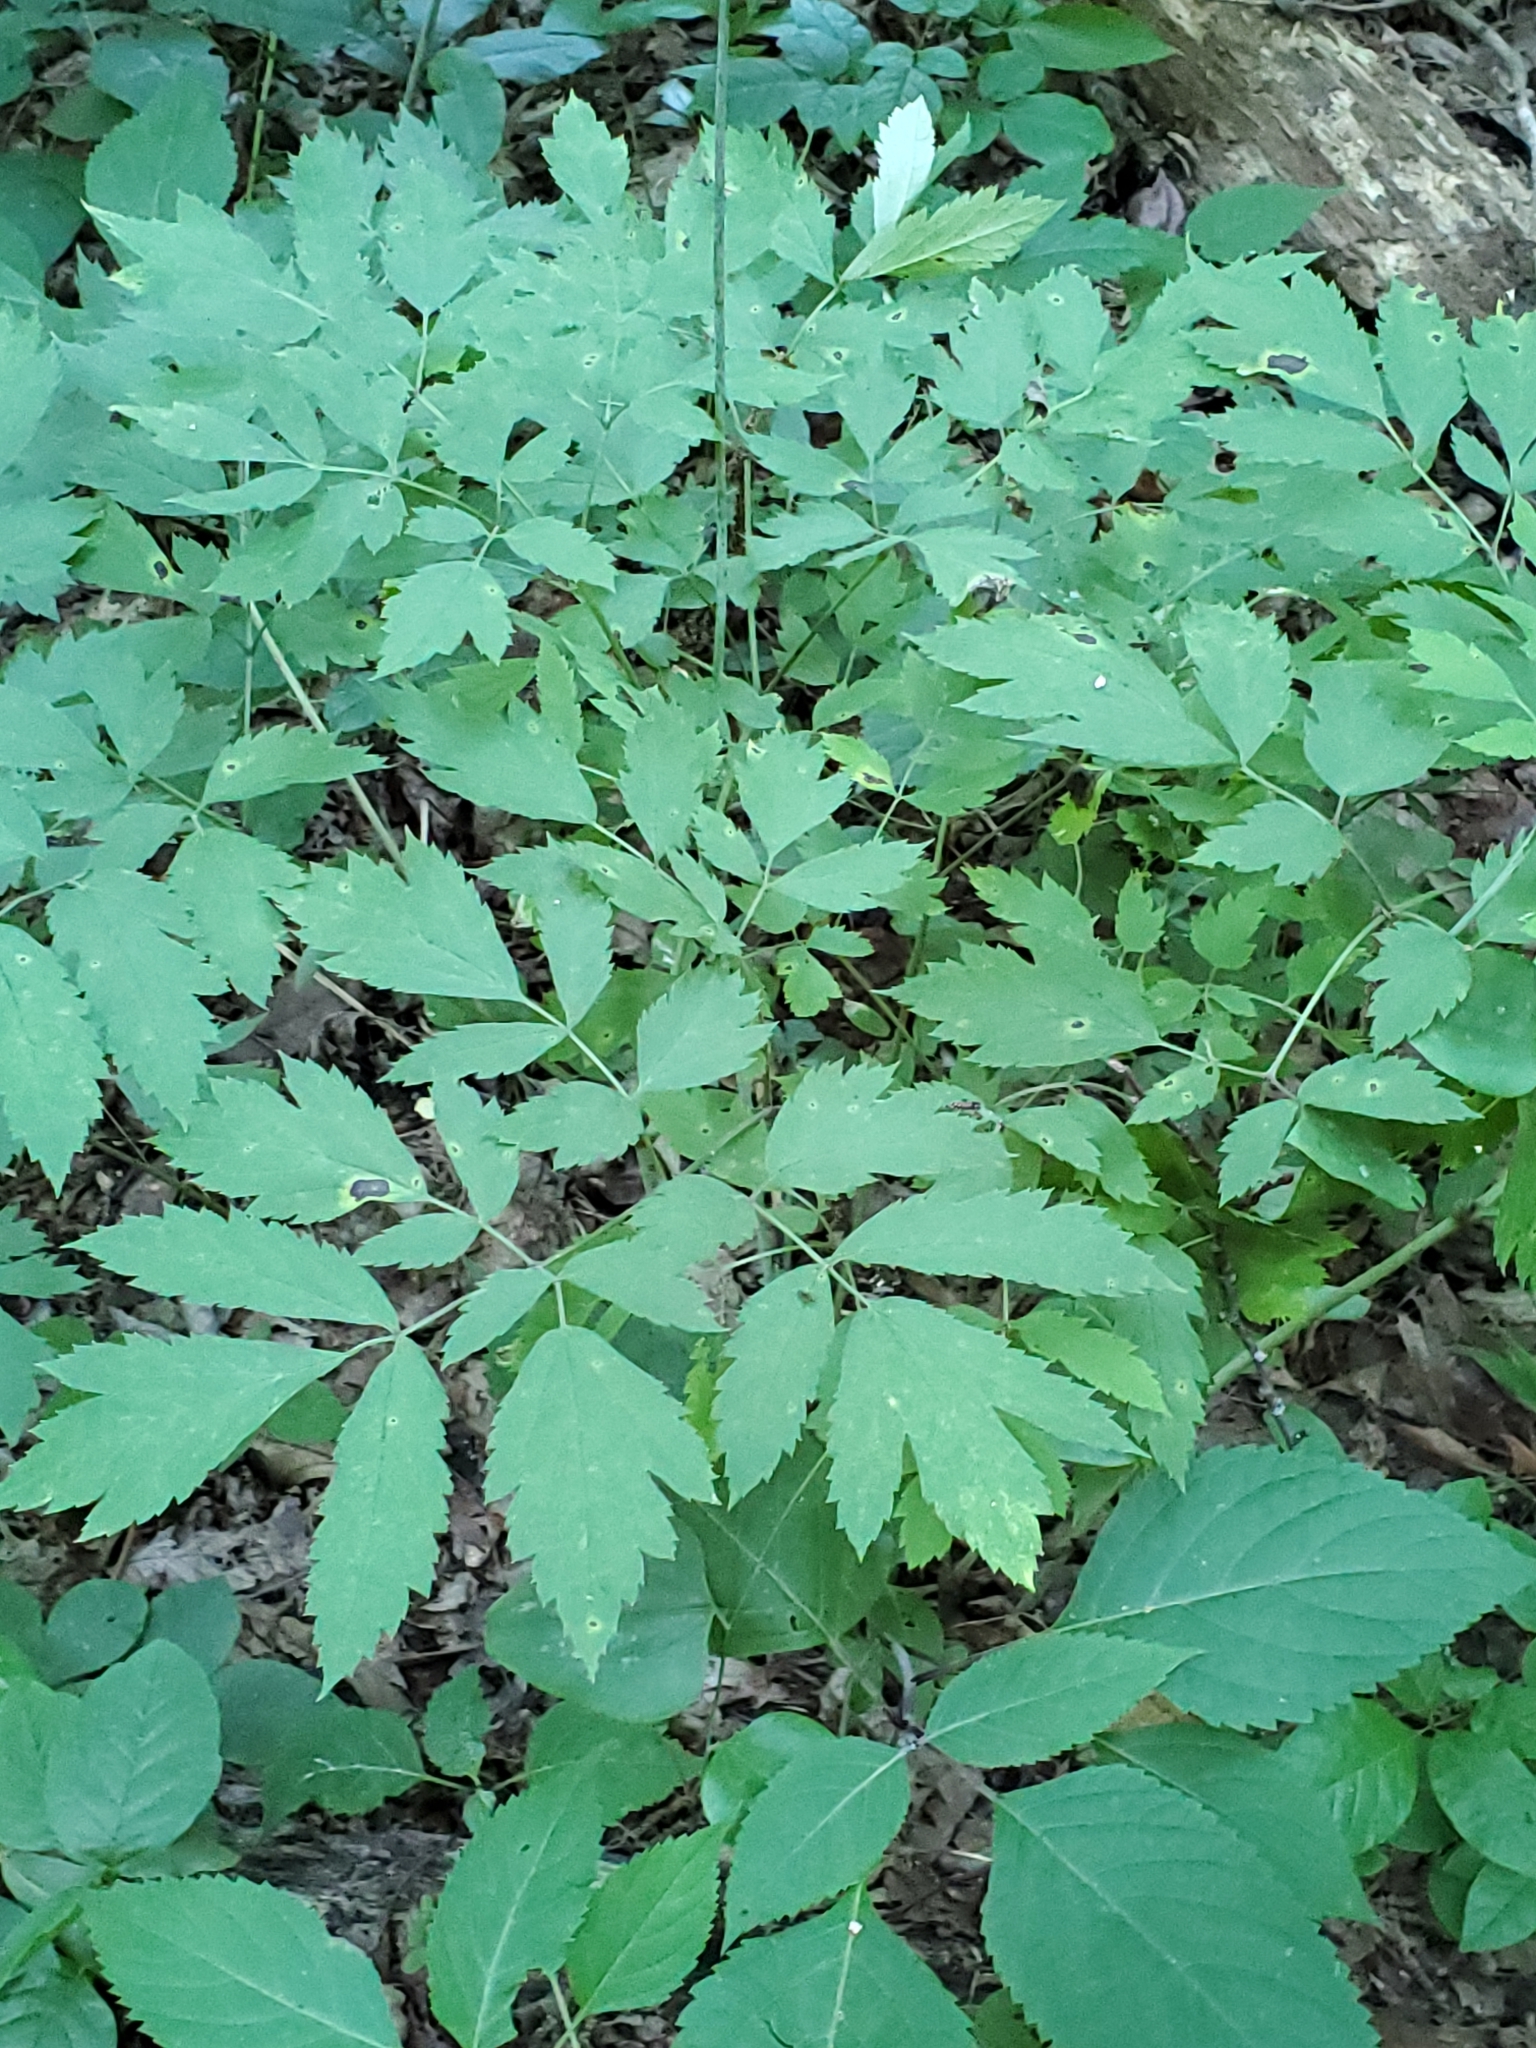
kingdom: Plantae
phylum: Tracheophyta
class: Magnoliopsida
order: Ranunculales
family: Ranunculaceae
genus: Actaea
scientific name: Actaea racemosa
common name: Black cohosh
